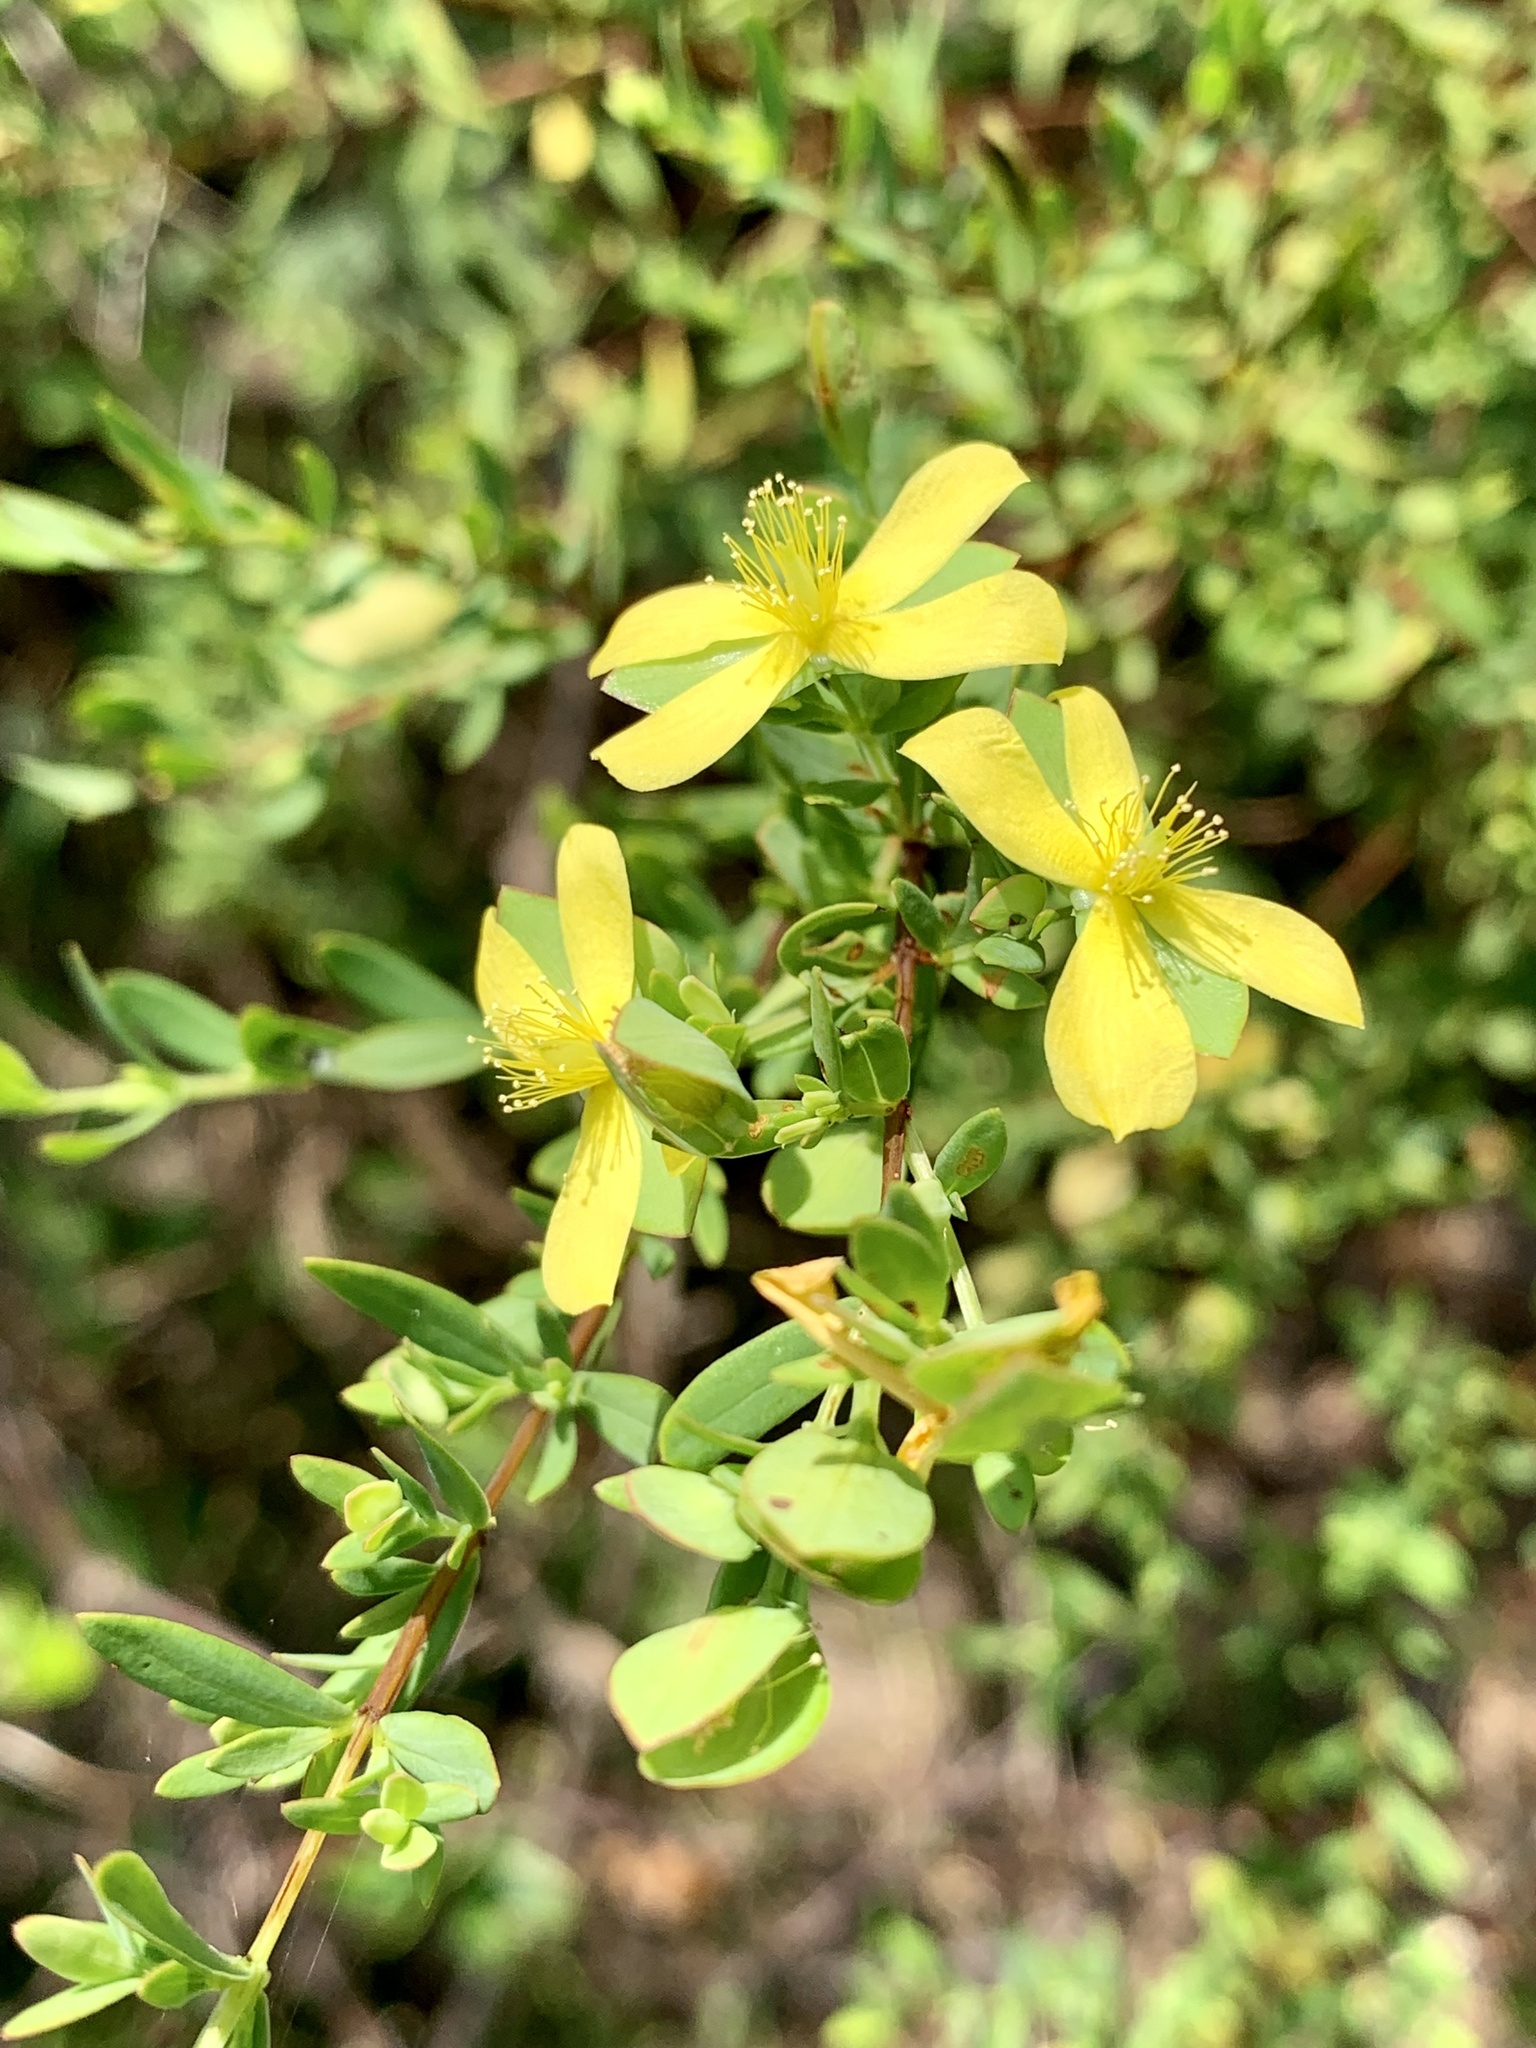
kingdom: Plantae
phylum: Tracheophyta
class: Magnoliopsida
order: Malpighiales
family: Hypericaceae
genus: Hypericum
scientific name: Hypericum hypericoides
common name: St. andrew's cross
